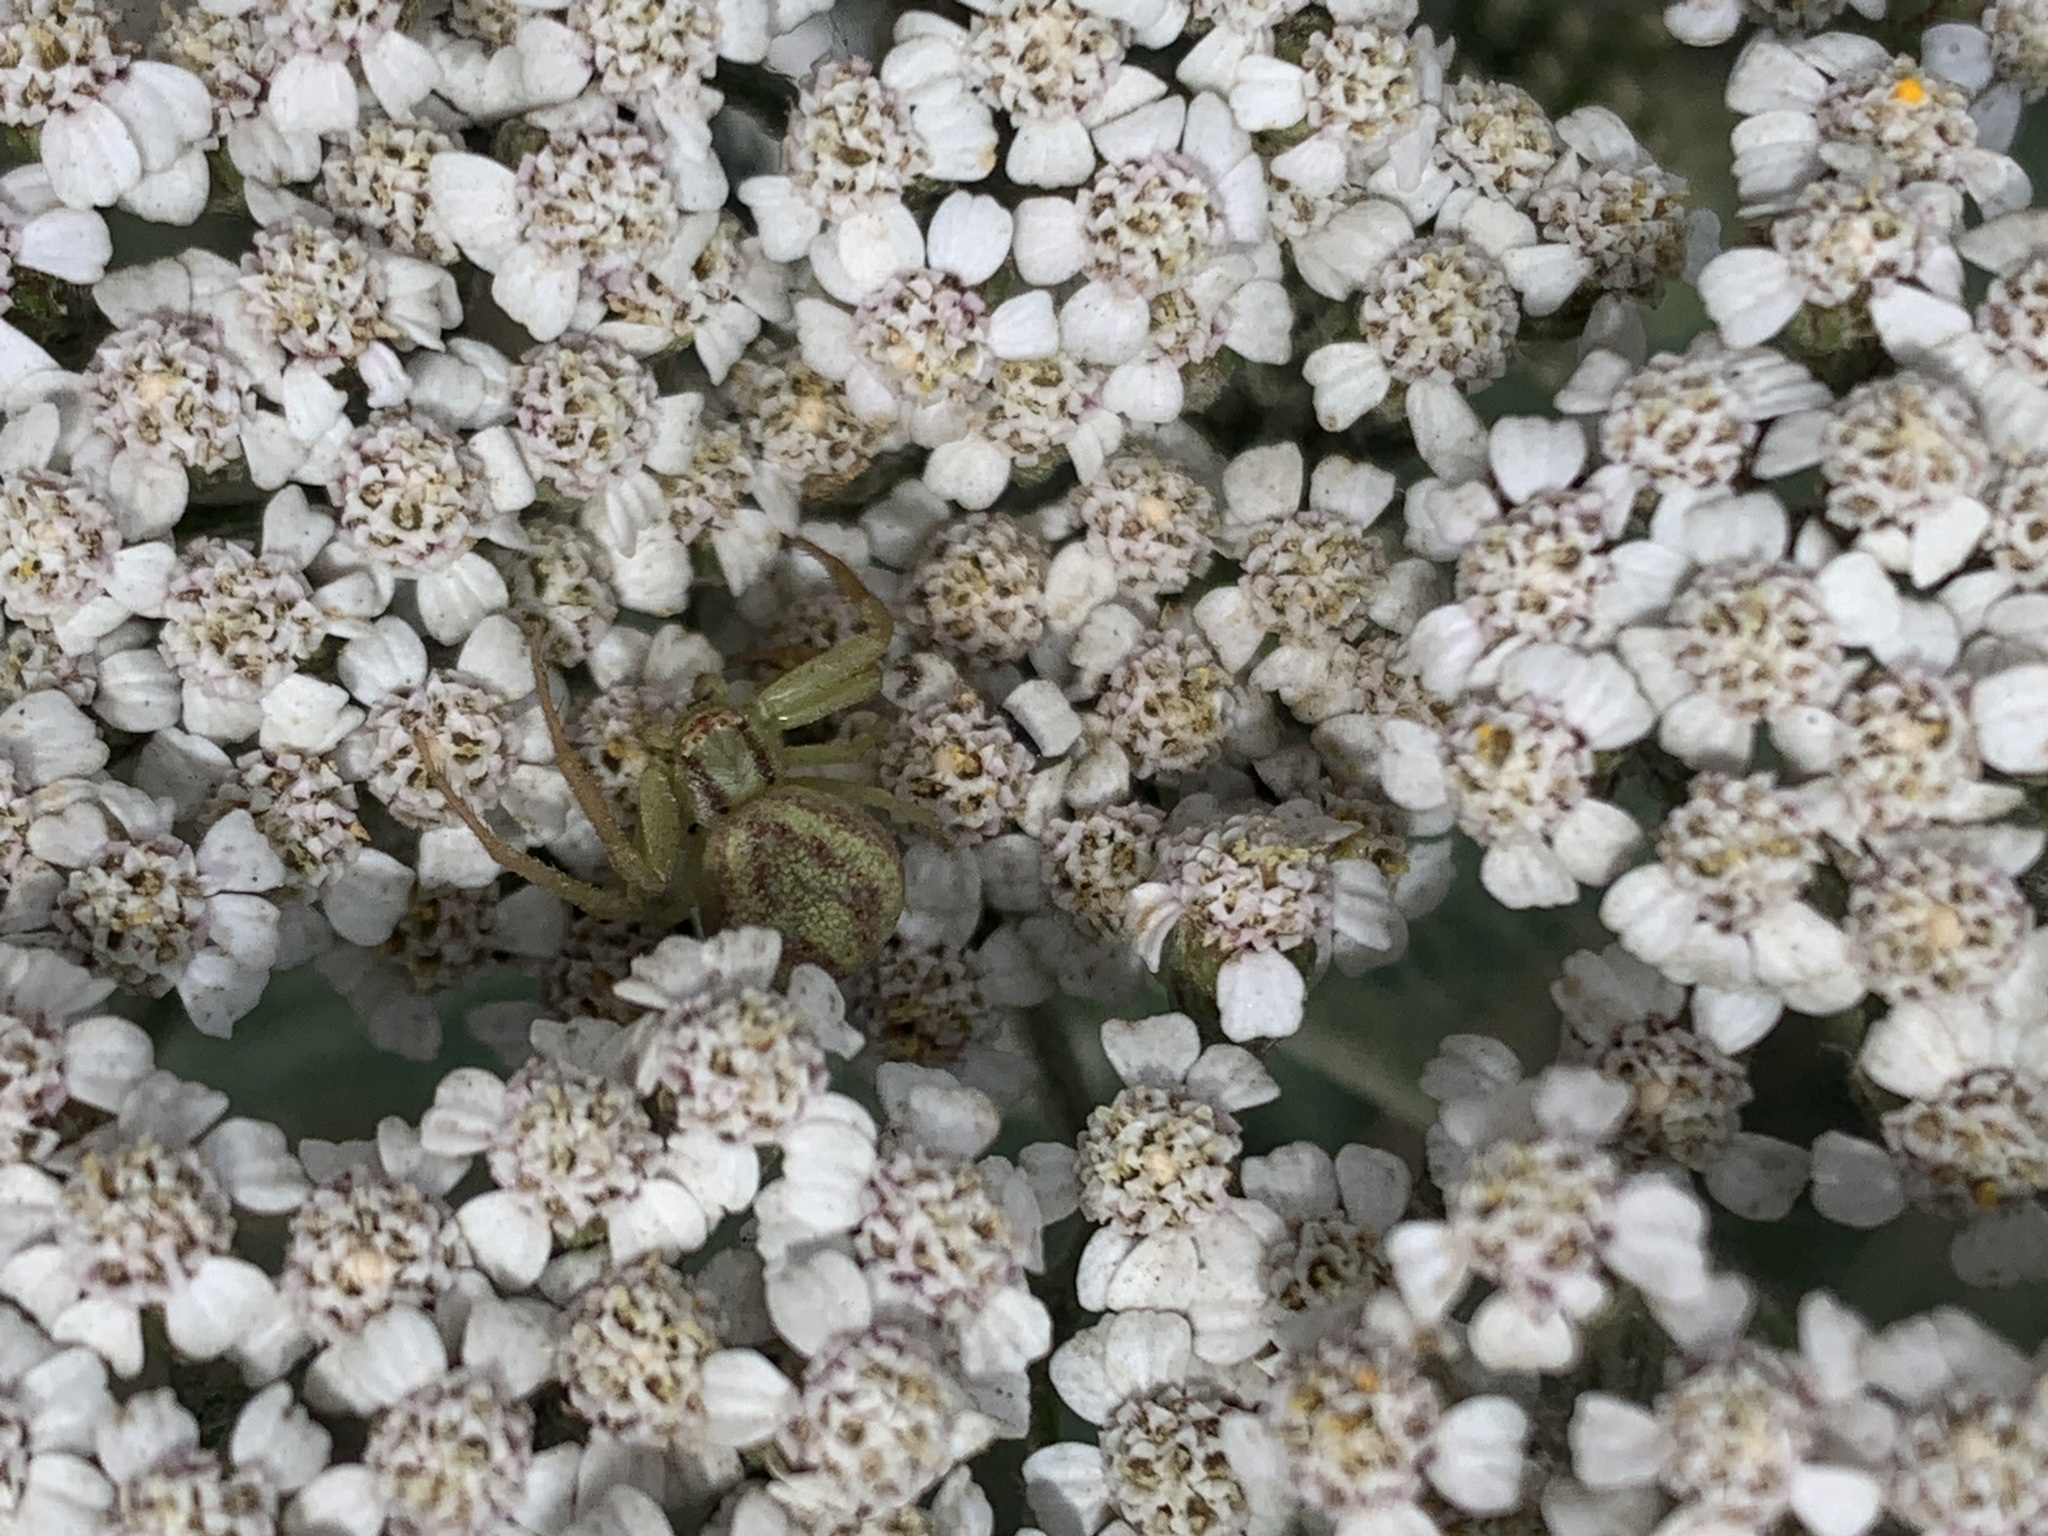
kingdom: Plantae
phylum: Tracheophyta
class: Magnoliopsida
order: Asterales
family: Asteraceae
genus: Achillea
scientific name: Achillea millefolium
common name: Yarrow
